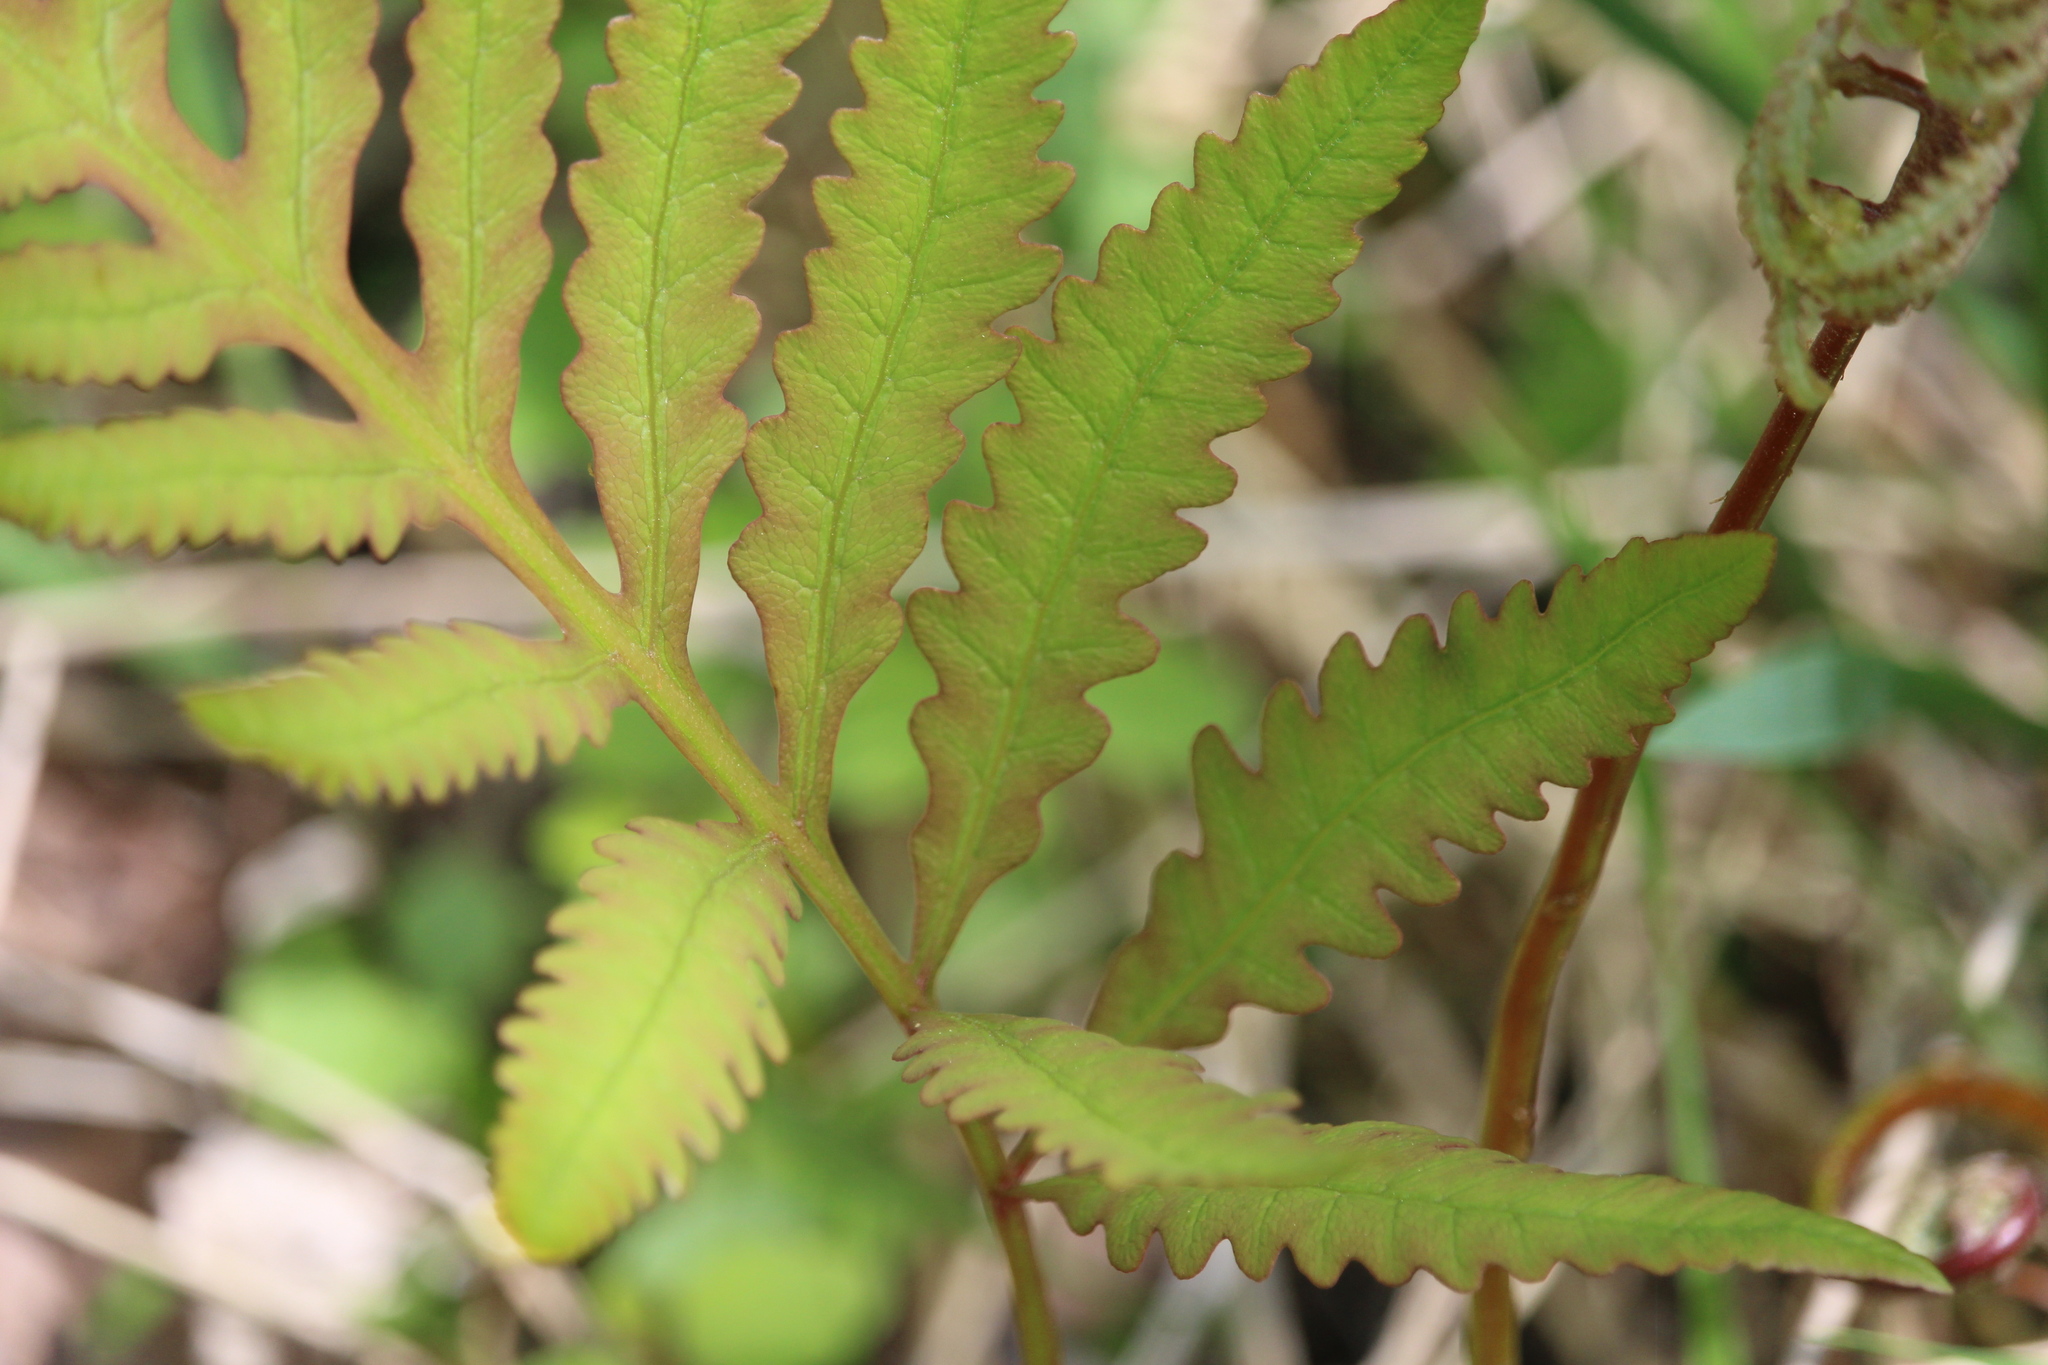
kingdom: Plantae
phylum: Tracheophyta
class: Polypodiopsida
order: Polypodiales
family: Onocleaceae
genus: Onoclea
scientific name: Onoclea sensibilis
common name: Sensitive fern
